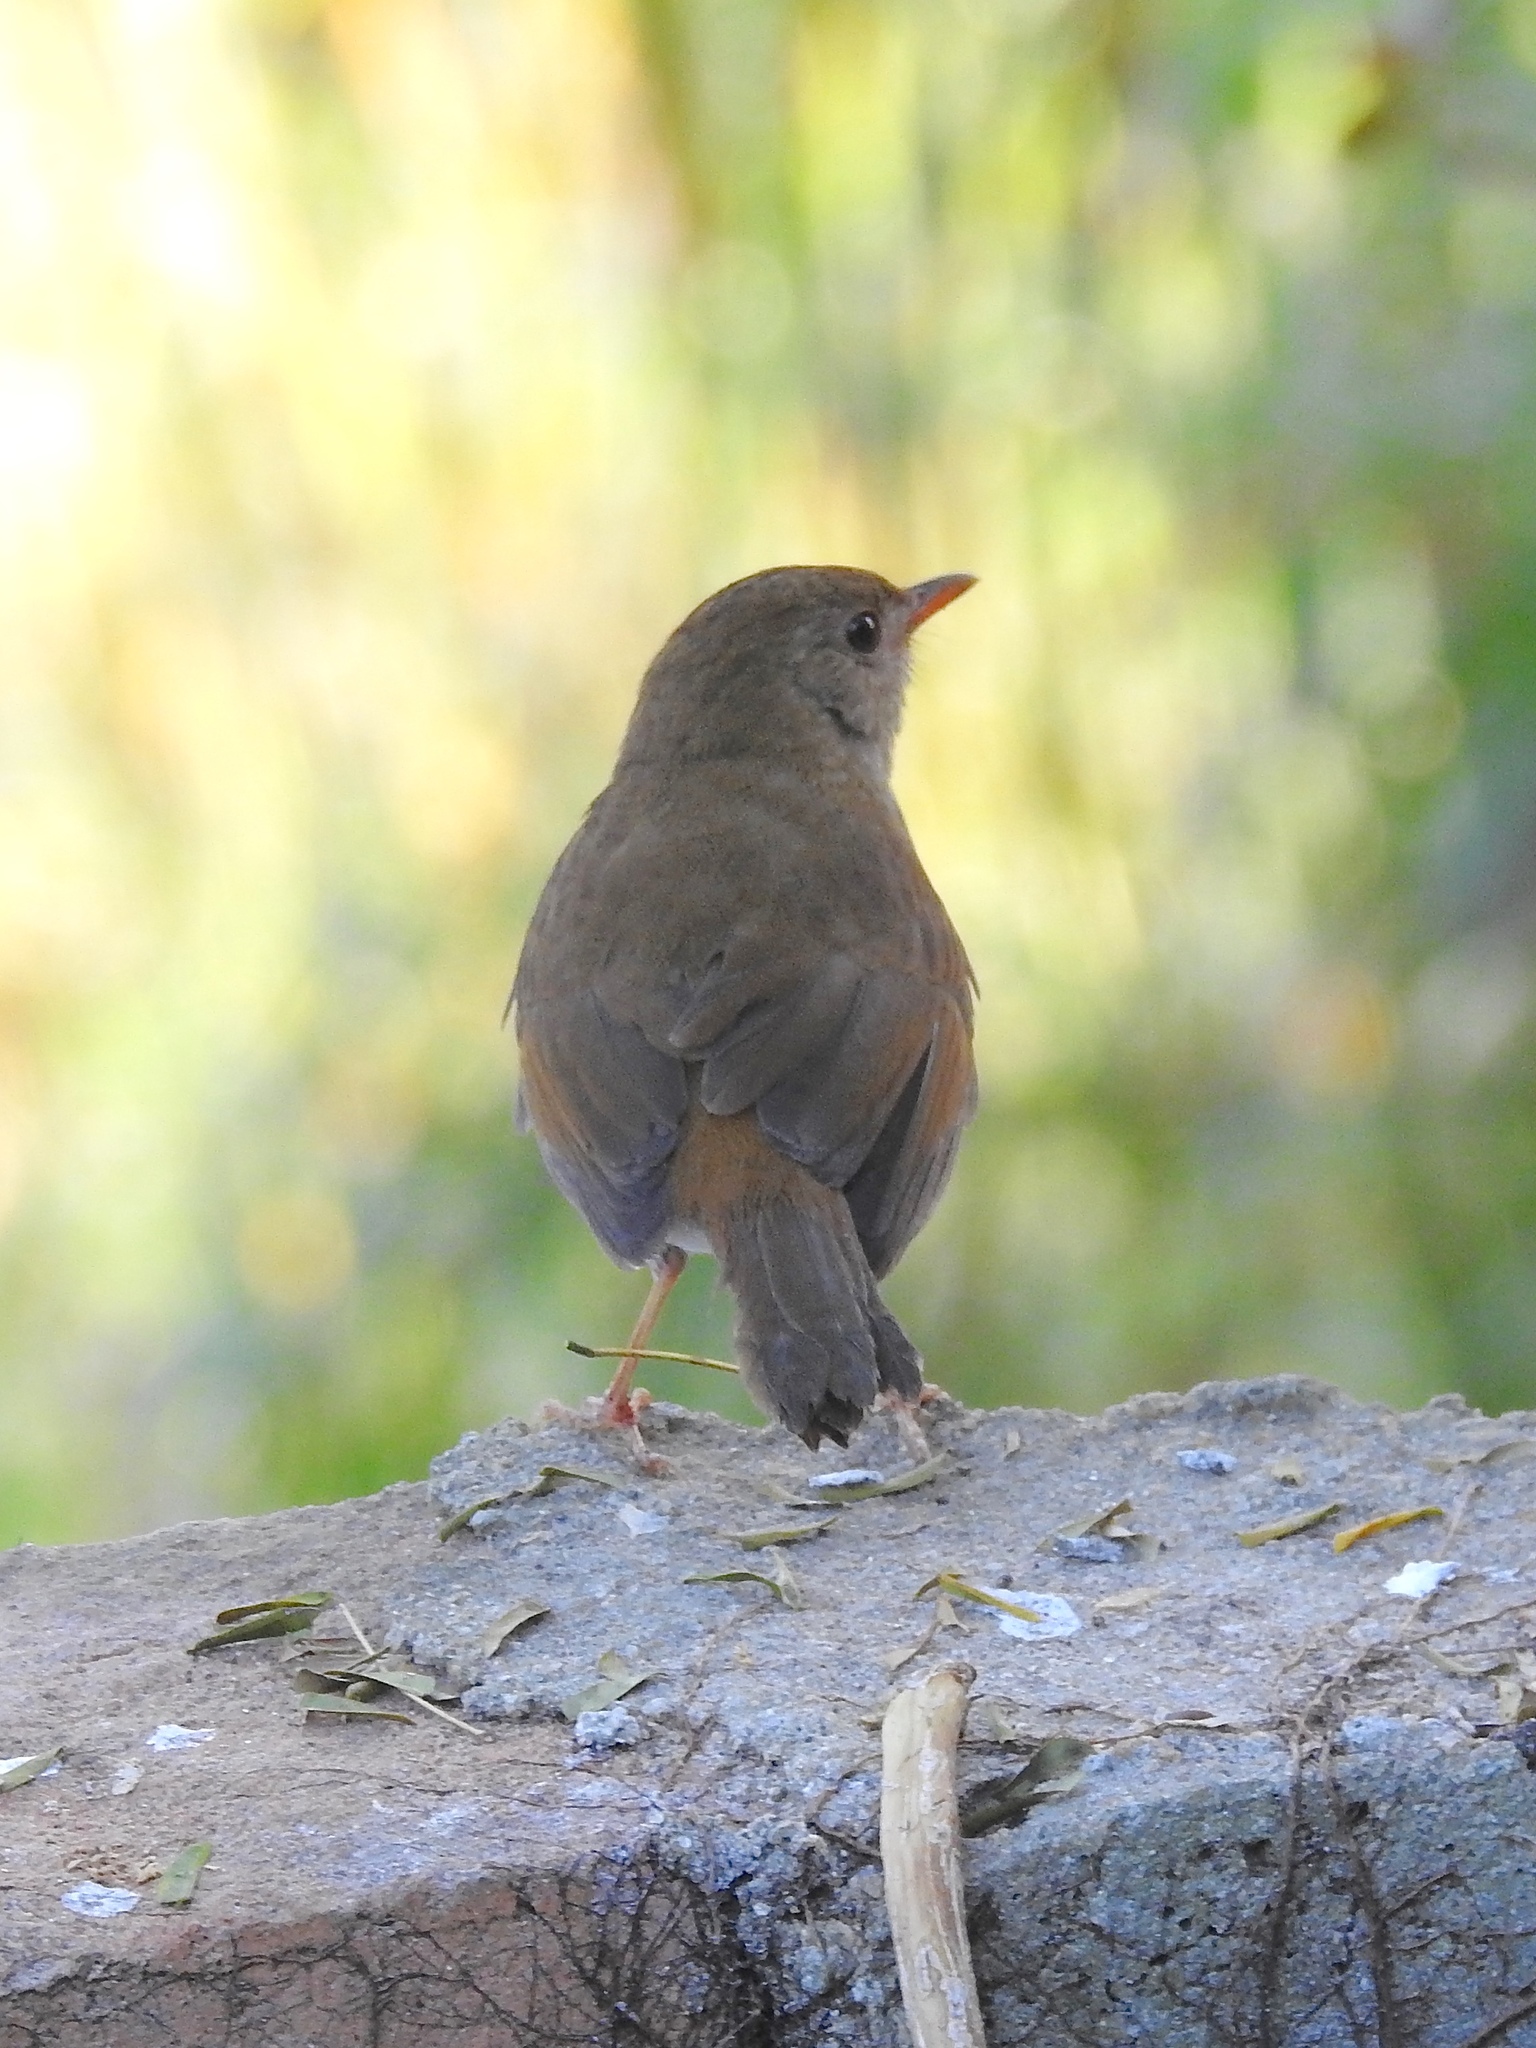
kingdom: Animalia
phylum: Chordata
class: Aves
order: Passeriformes
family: Turdidae
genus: Catharus
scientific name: Catharus aurantiirostris
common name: Orange-billed nightingale-thrush
